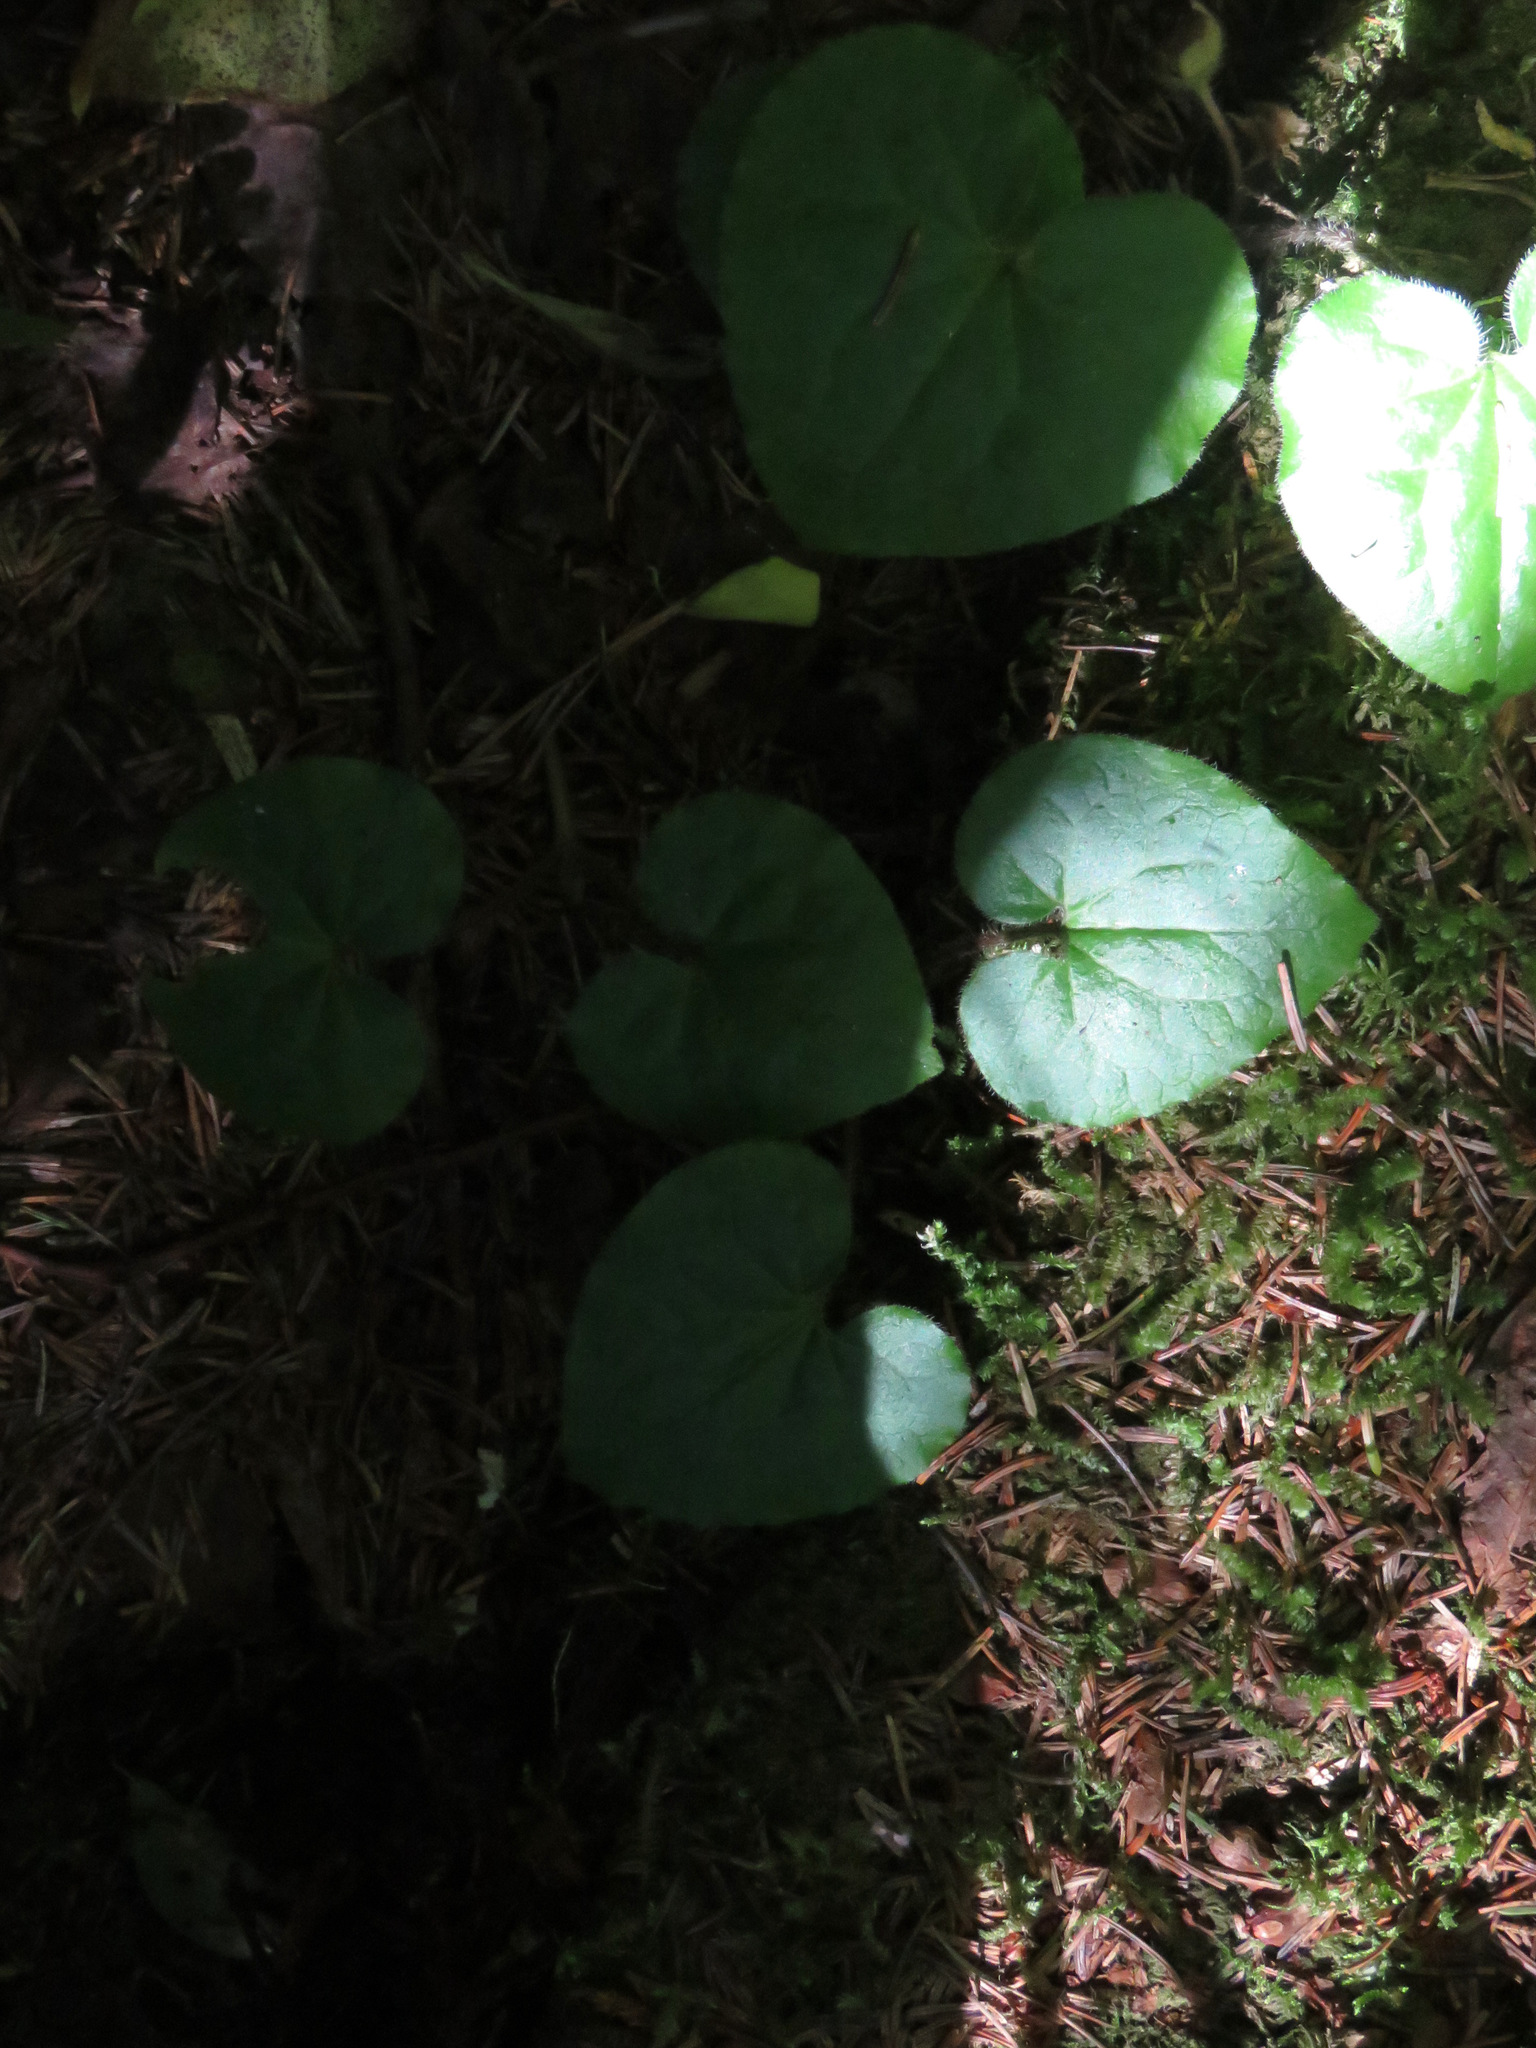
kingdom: Plantae
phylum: Tracheophyta
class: Magnoliopsida
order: Piperales
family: Aristolochiaceae
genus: Asarum
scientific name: Asarum caudatum
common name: Wild ginger
